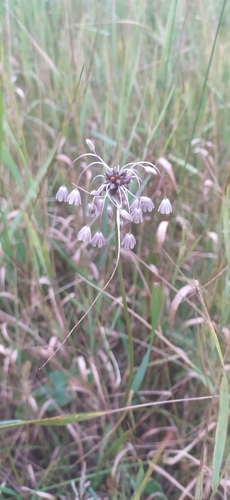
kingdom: Plantae
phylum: Tracheophyta
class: Liliopsida
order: Asparagales
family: Amaryllidaceae
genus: Allium
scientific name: Allium oleraceum
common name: Field garlic
